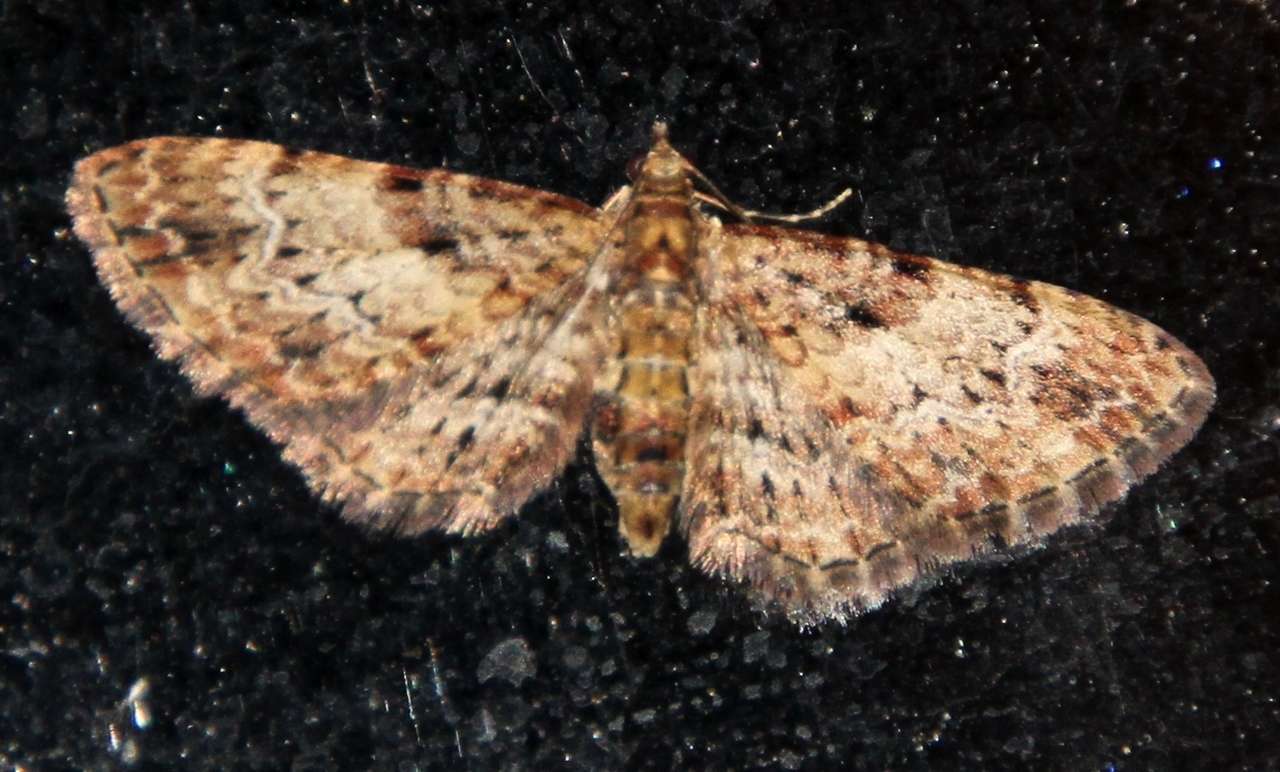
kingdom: Animalia
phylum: Arthropoda
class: Insecta
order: Lepidoptera
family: Geometridae
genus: Chloroclystis
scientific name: Chloroclystis approximata
